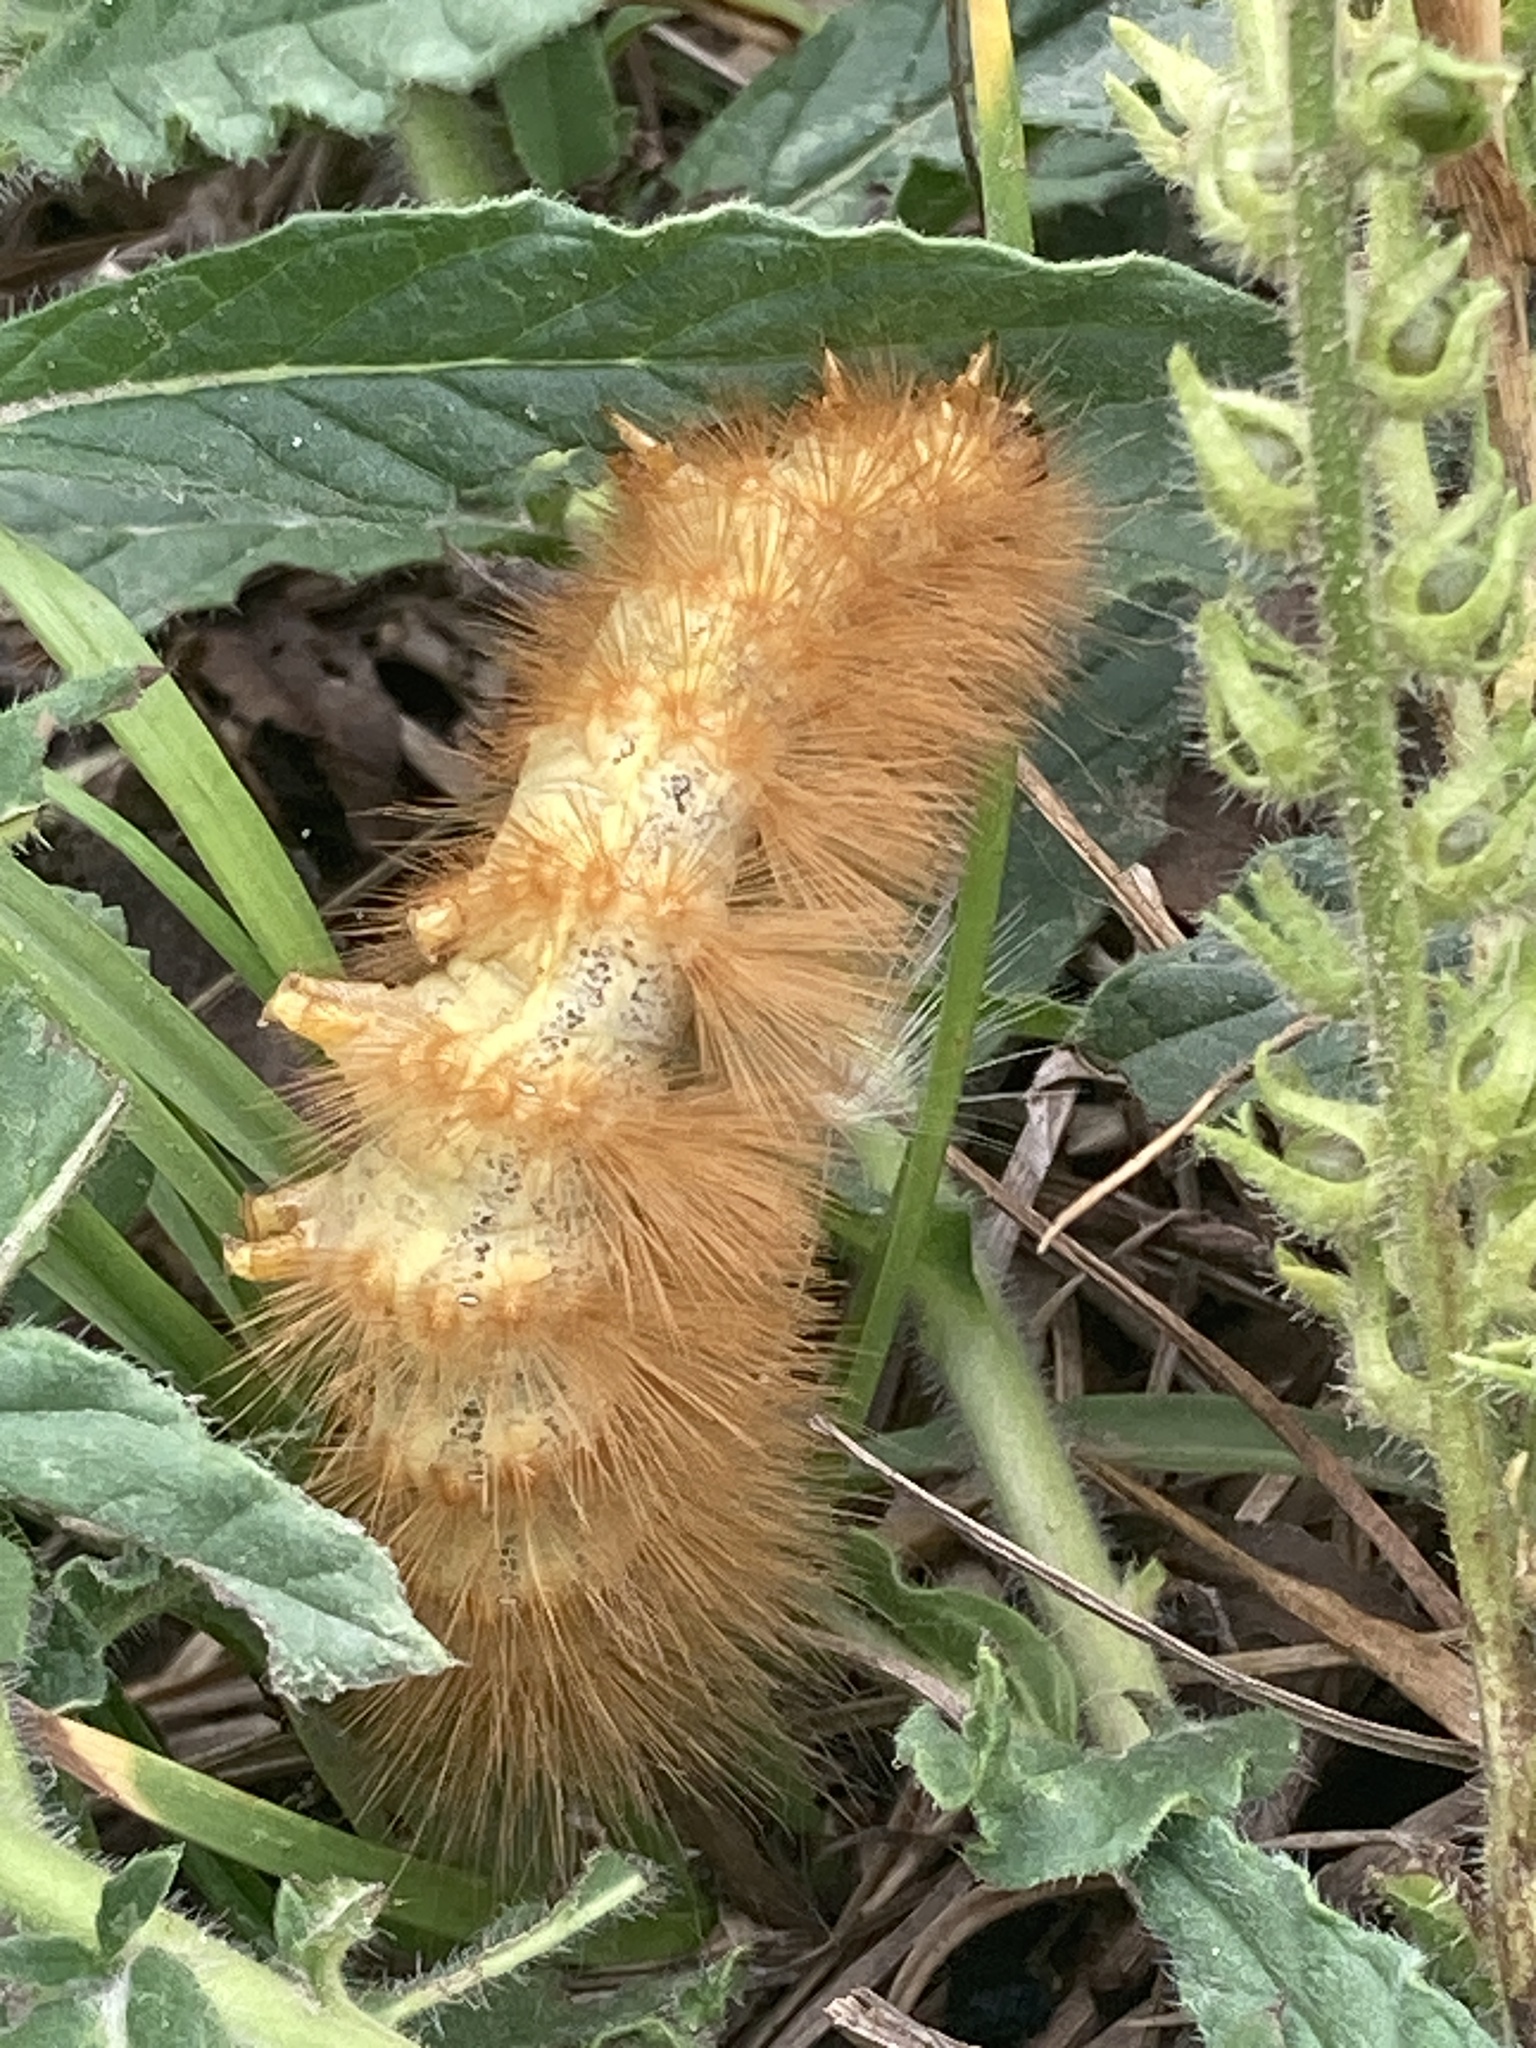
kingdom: Animalia
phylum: Arthropoda
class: Insecta
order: Lepidoptera
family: Erebidae
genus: Estigmene
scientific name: Estigmene acrea
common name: Salt marsh moth
